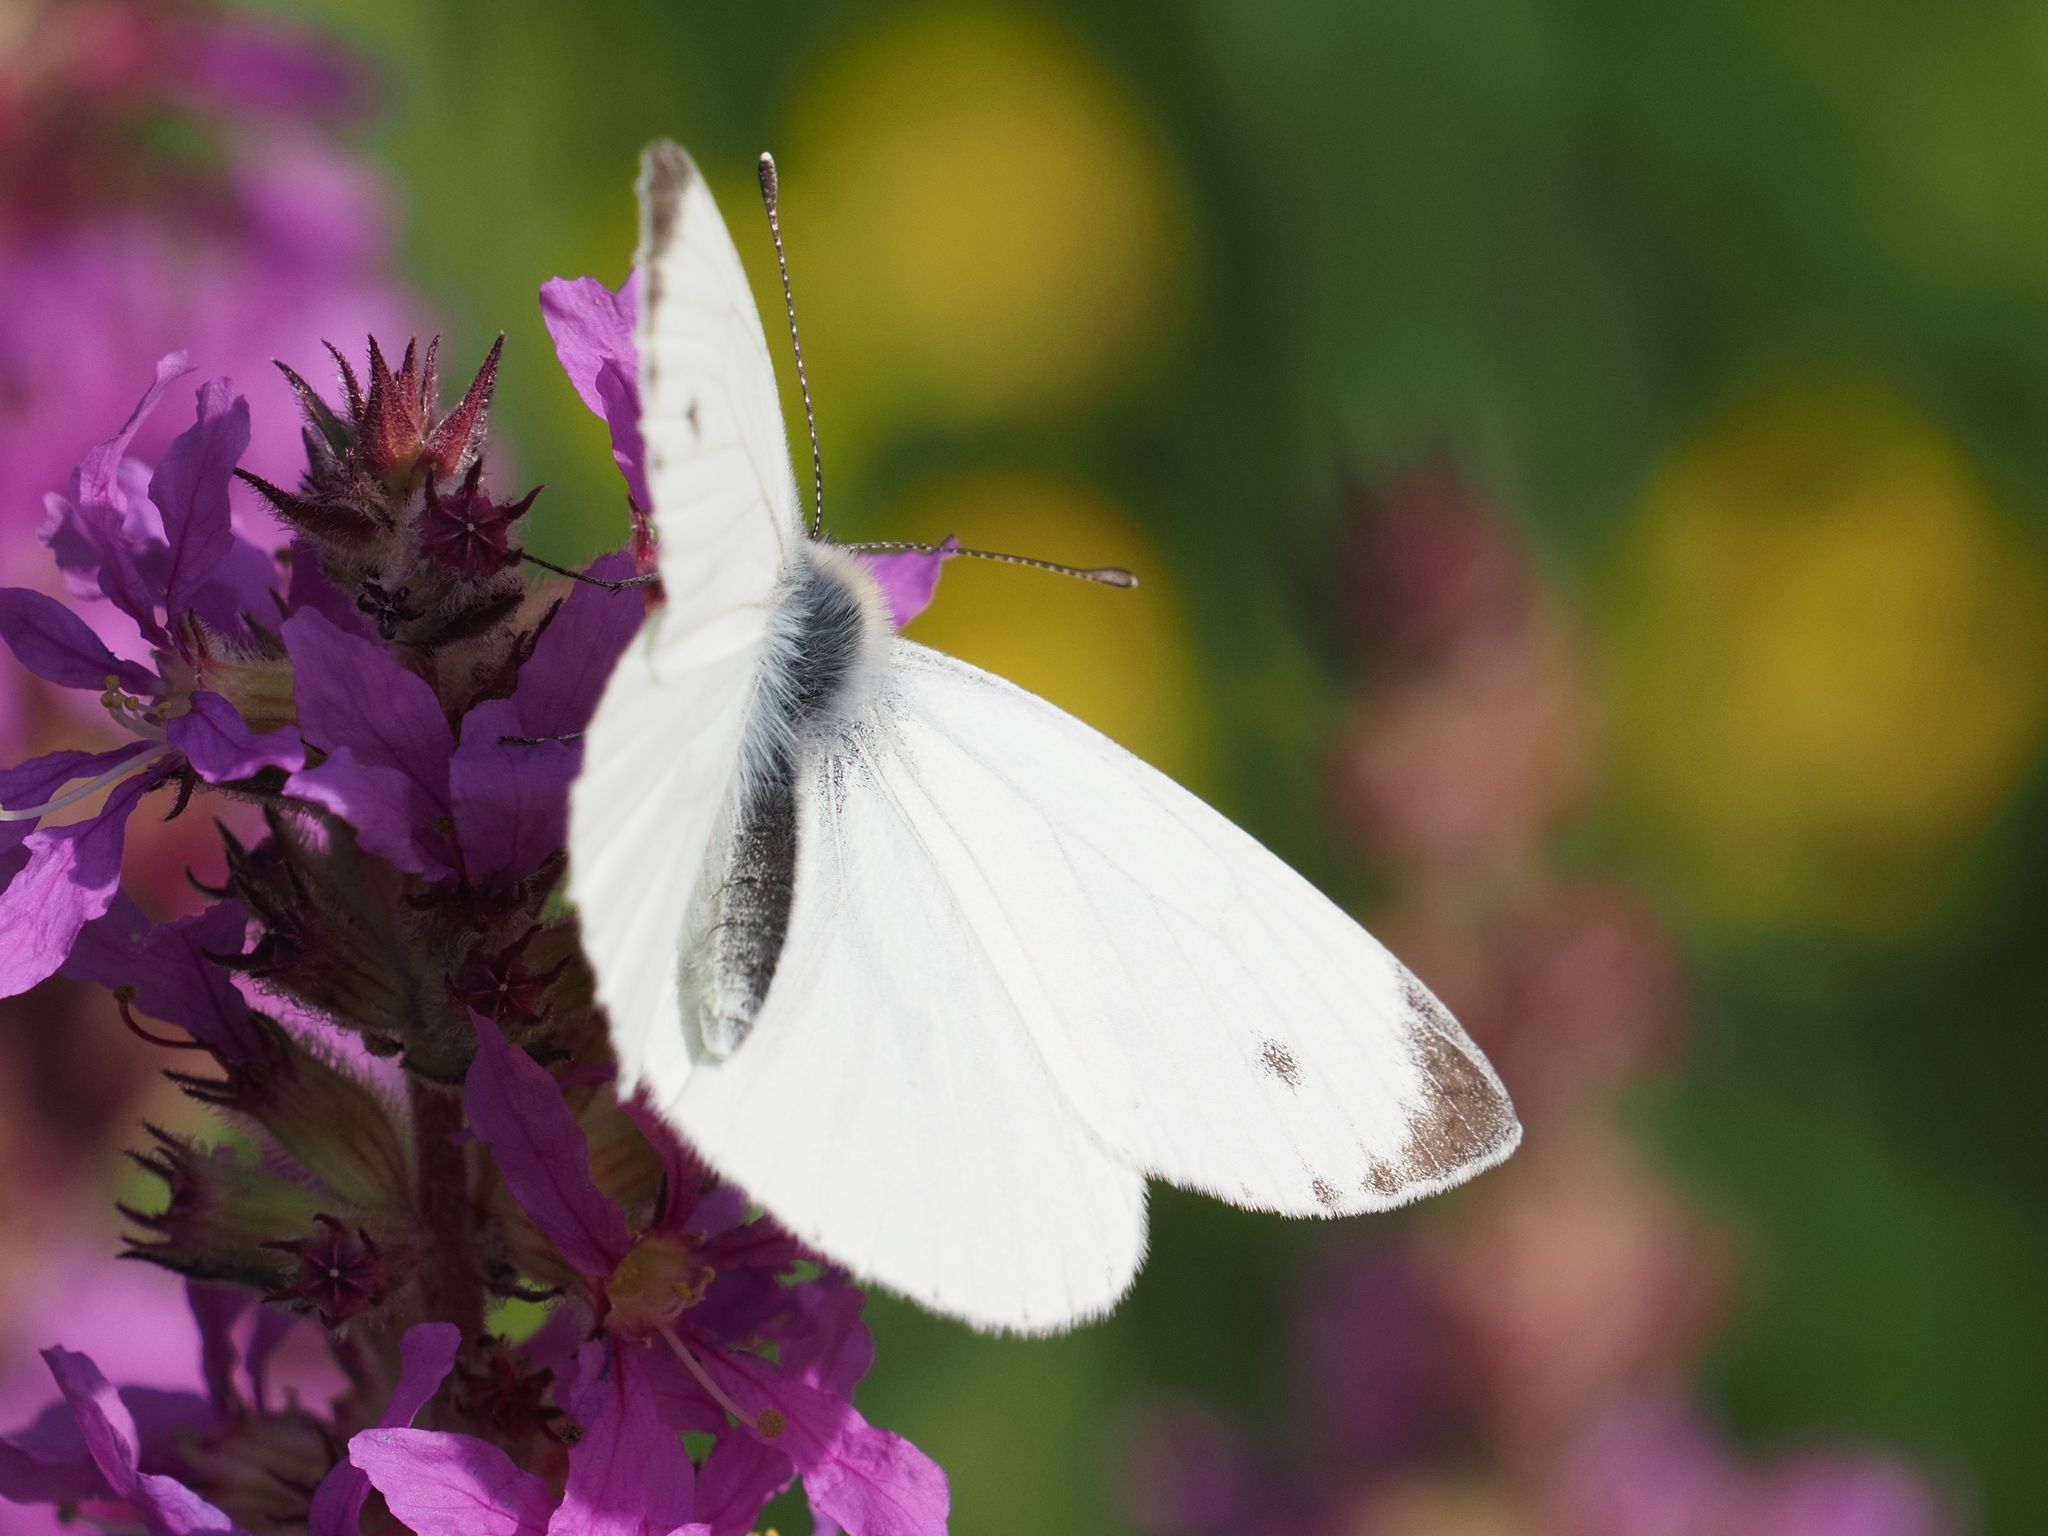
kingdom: Animalia
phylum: Arthropoda
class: Insecta
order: Lepidoptera
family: Pieridae
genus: Pieris
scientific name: Pieris napi
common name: Green-veined white
